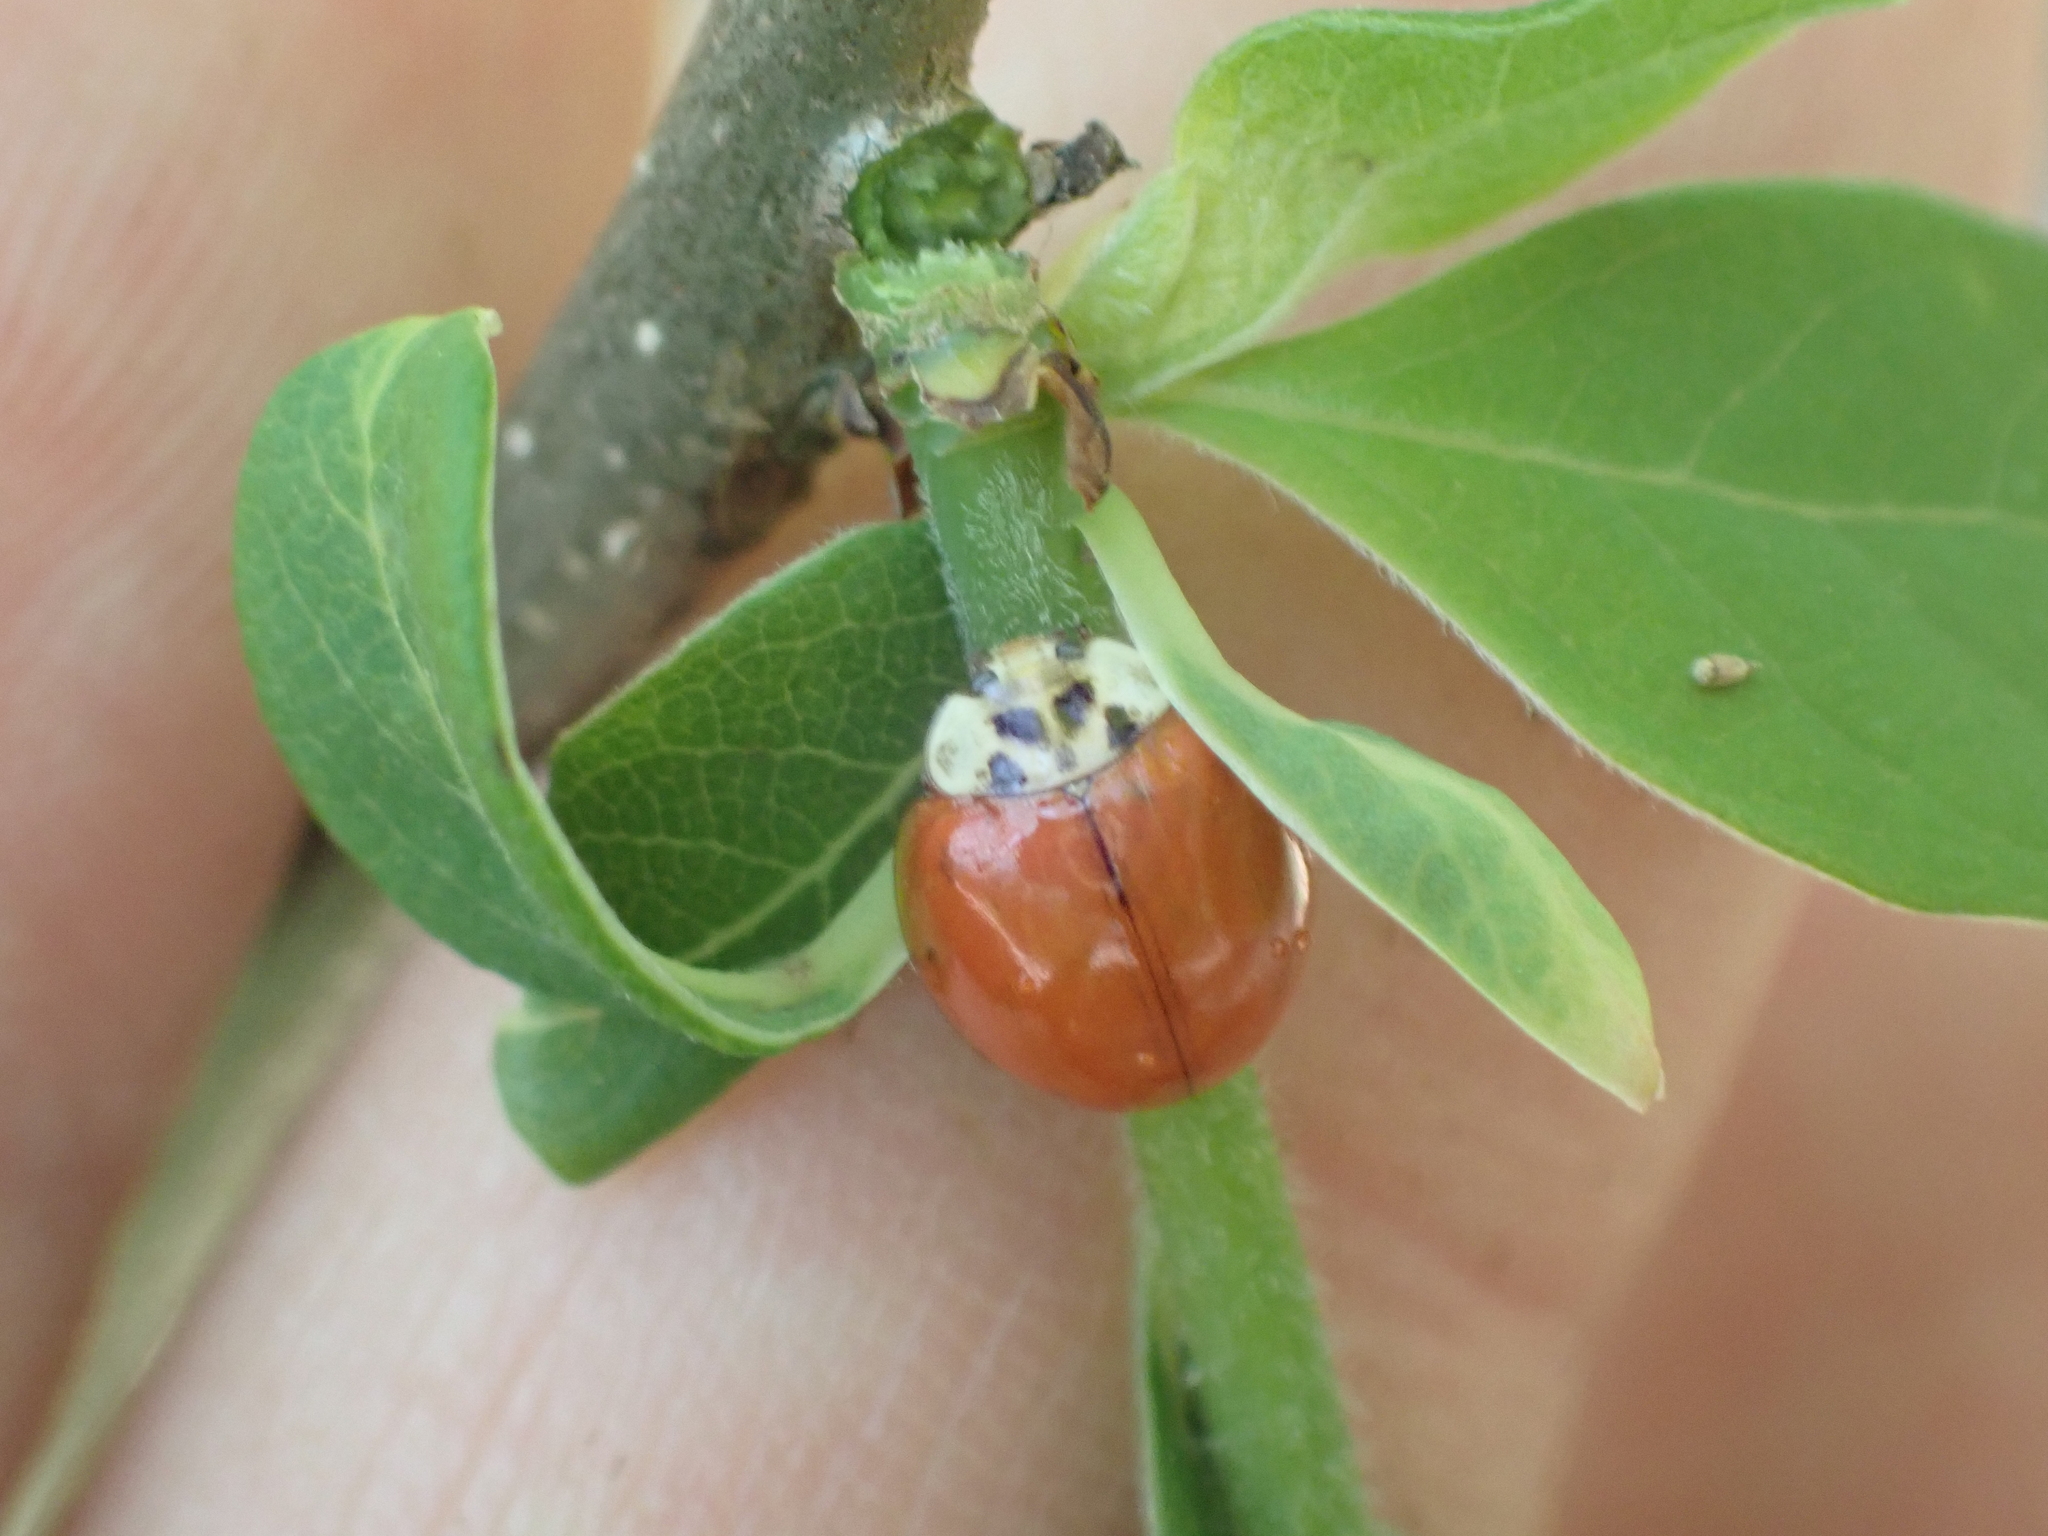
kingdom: Animalia
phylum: Arthropoda
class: Insecta
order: Coleoptera
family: Coccinellidae
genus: Harmonia
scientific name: Harmonia axyridis
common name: Harlequin ladybird
